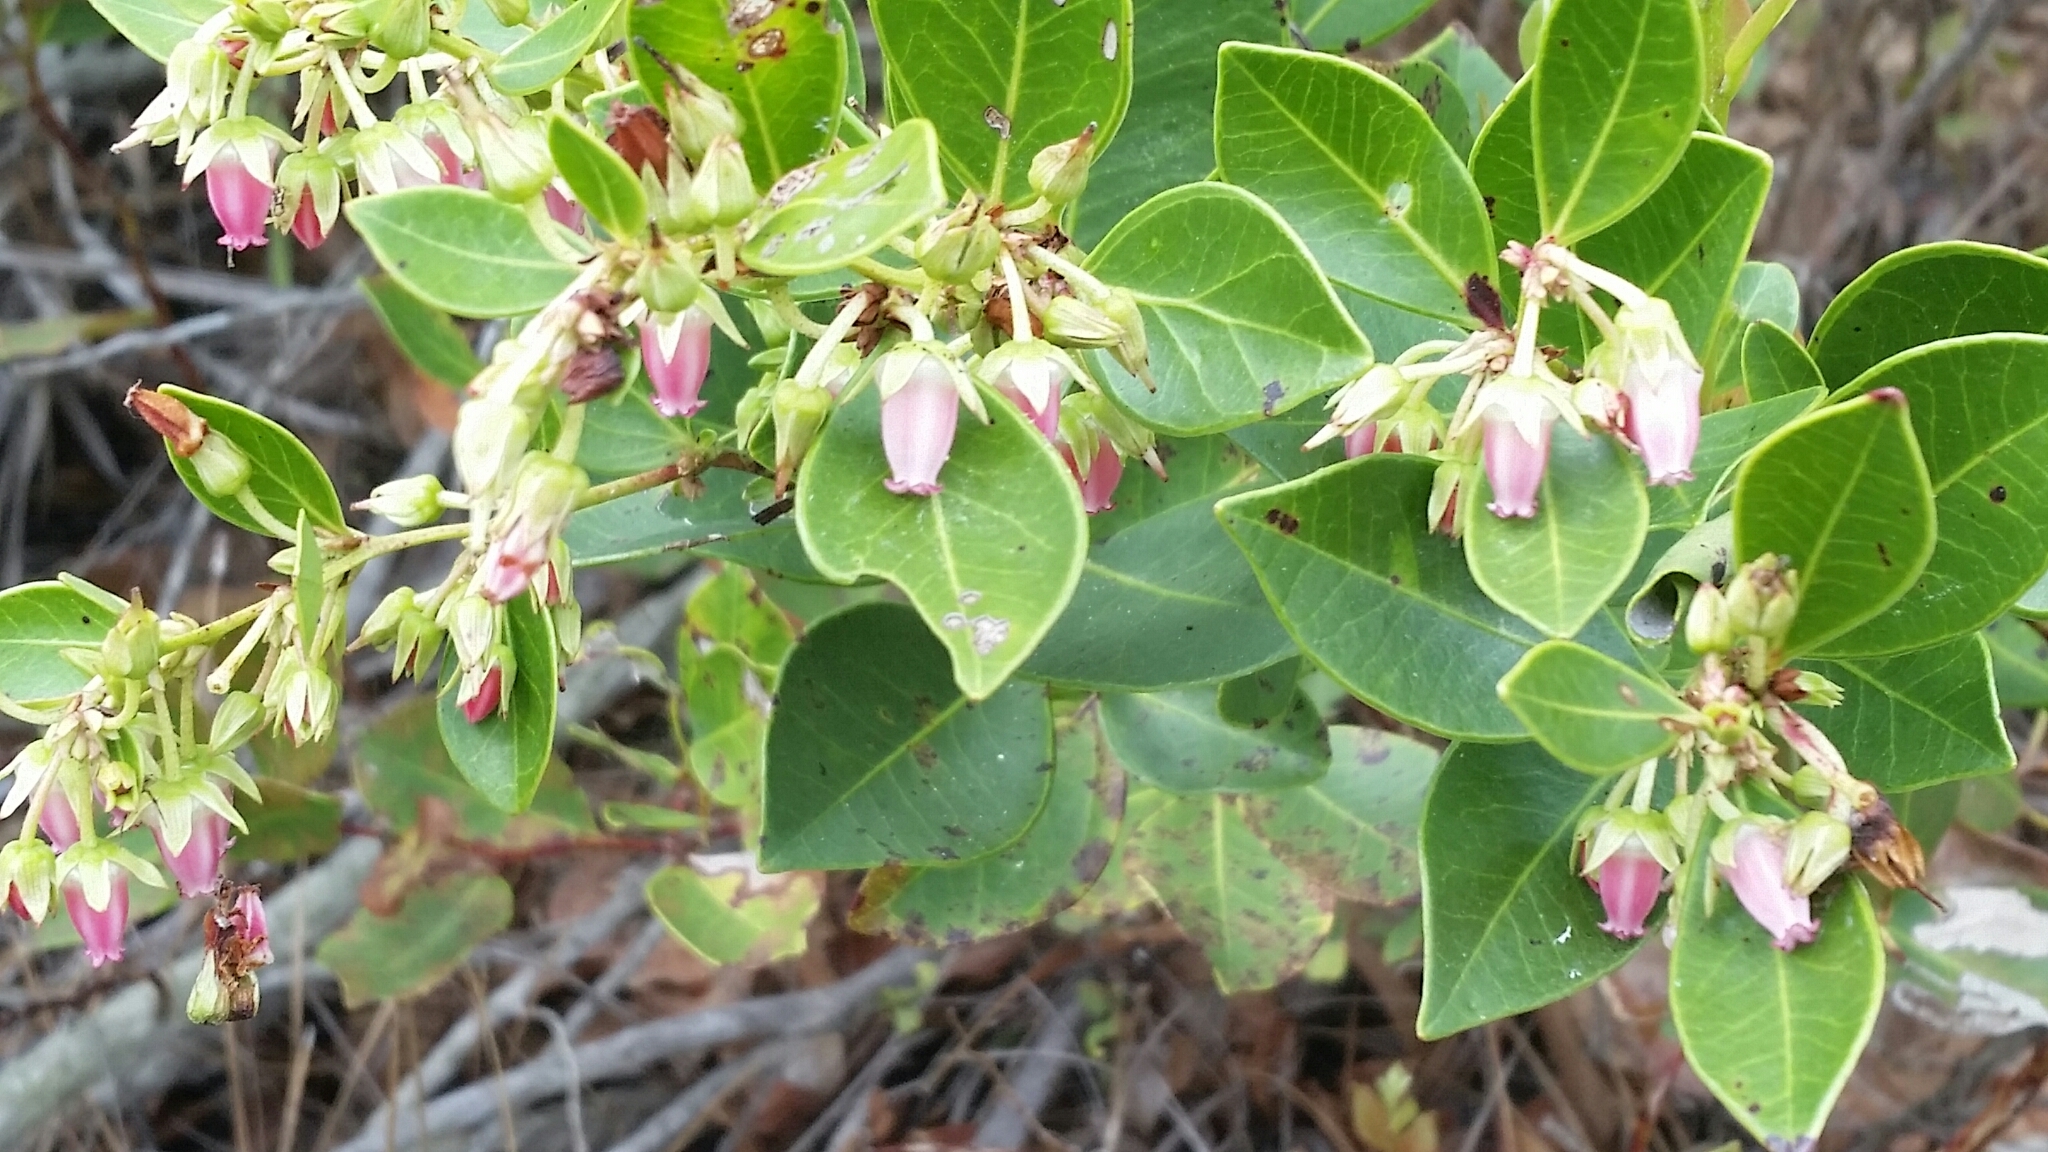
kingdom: Plantae
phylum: Tracheophyta
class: Magnoliopsida
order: Ericales
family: Ericaceae
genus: Lyonia
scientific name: Lyonia lucida
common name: Fetterbush
